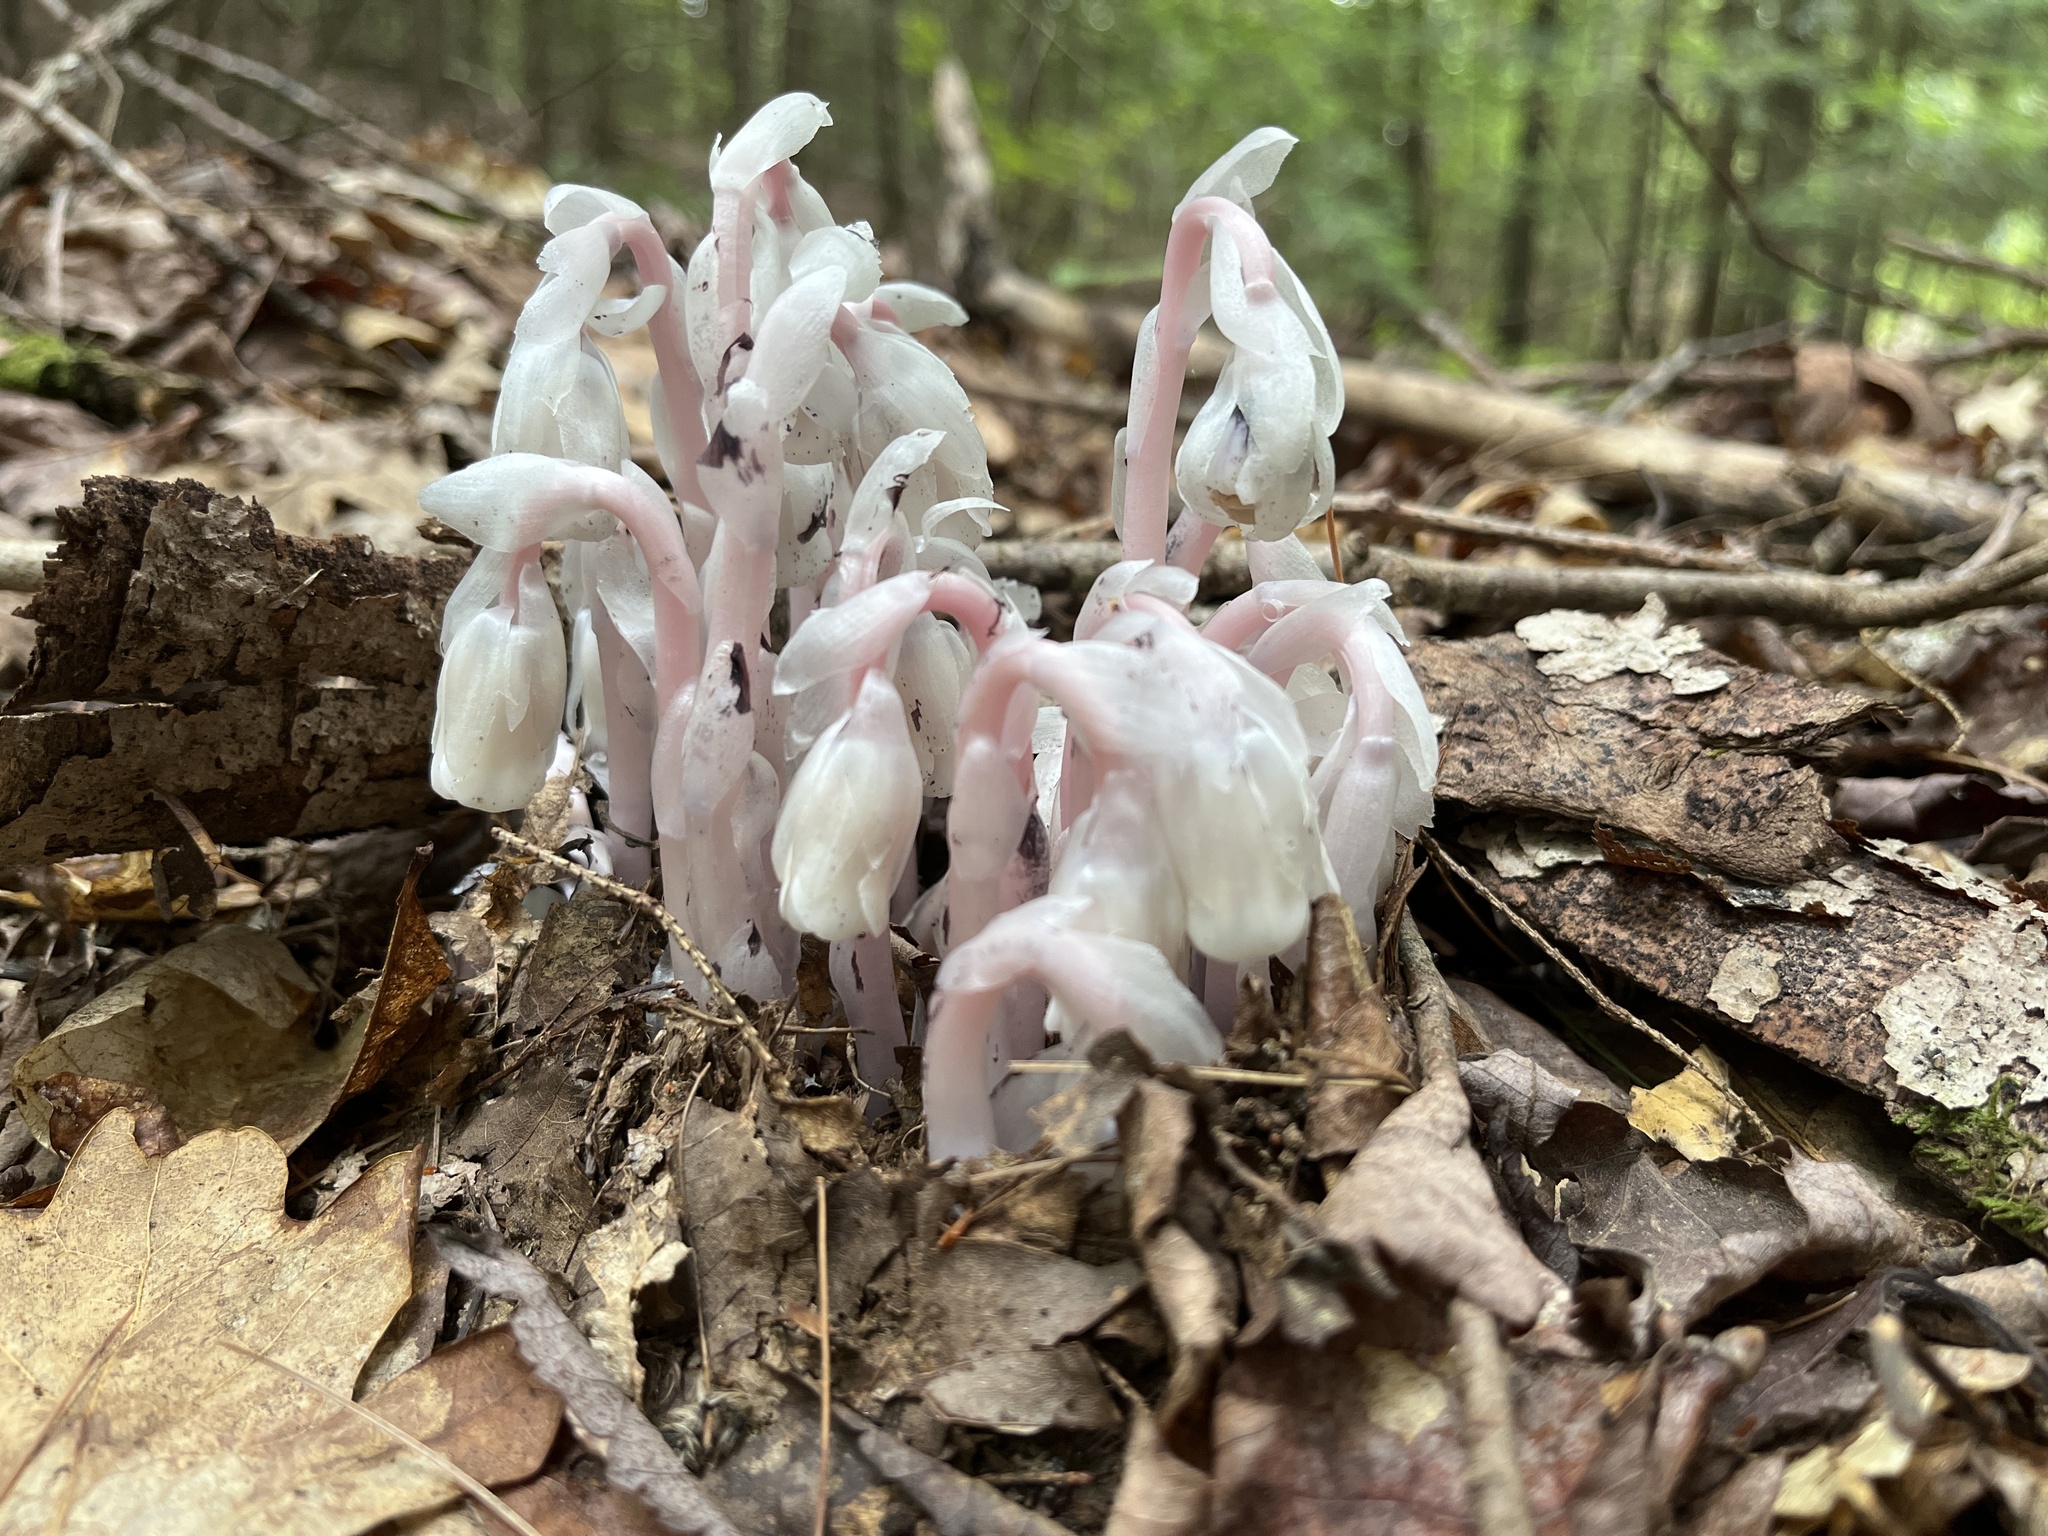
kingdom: Plantae
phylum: Tracheophyta
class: Magnoliopsida
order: Ericales
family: Ericaceae
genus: Monotropa
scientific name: Monotropa uniflora
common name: Convulsion root
